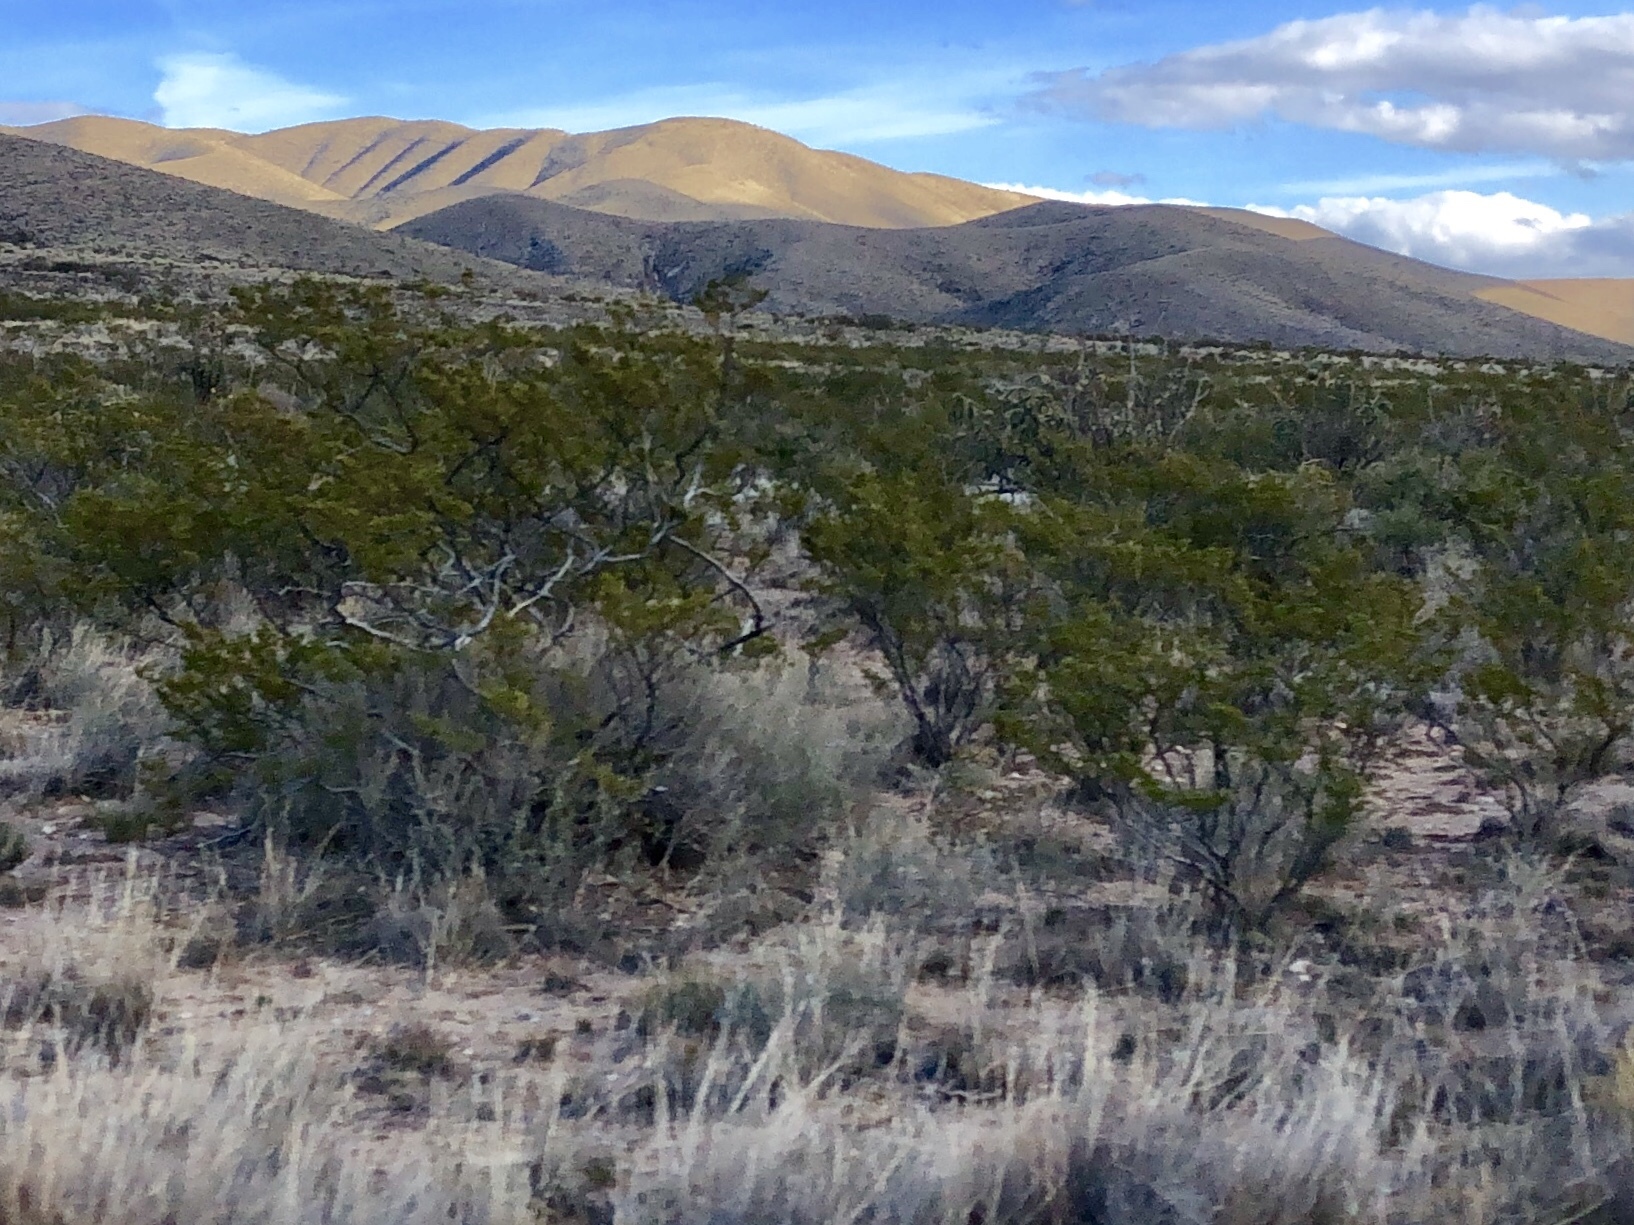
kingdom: Plantae
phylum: Tracheophyta
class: Magnoliopsida
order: Zygophyllales
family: Zygophyllaceae
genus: Larrea
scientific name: Larrea tridentata
